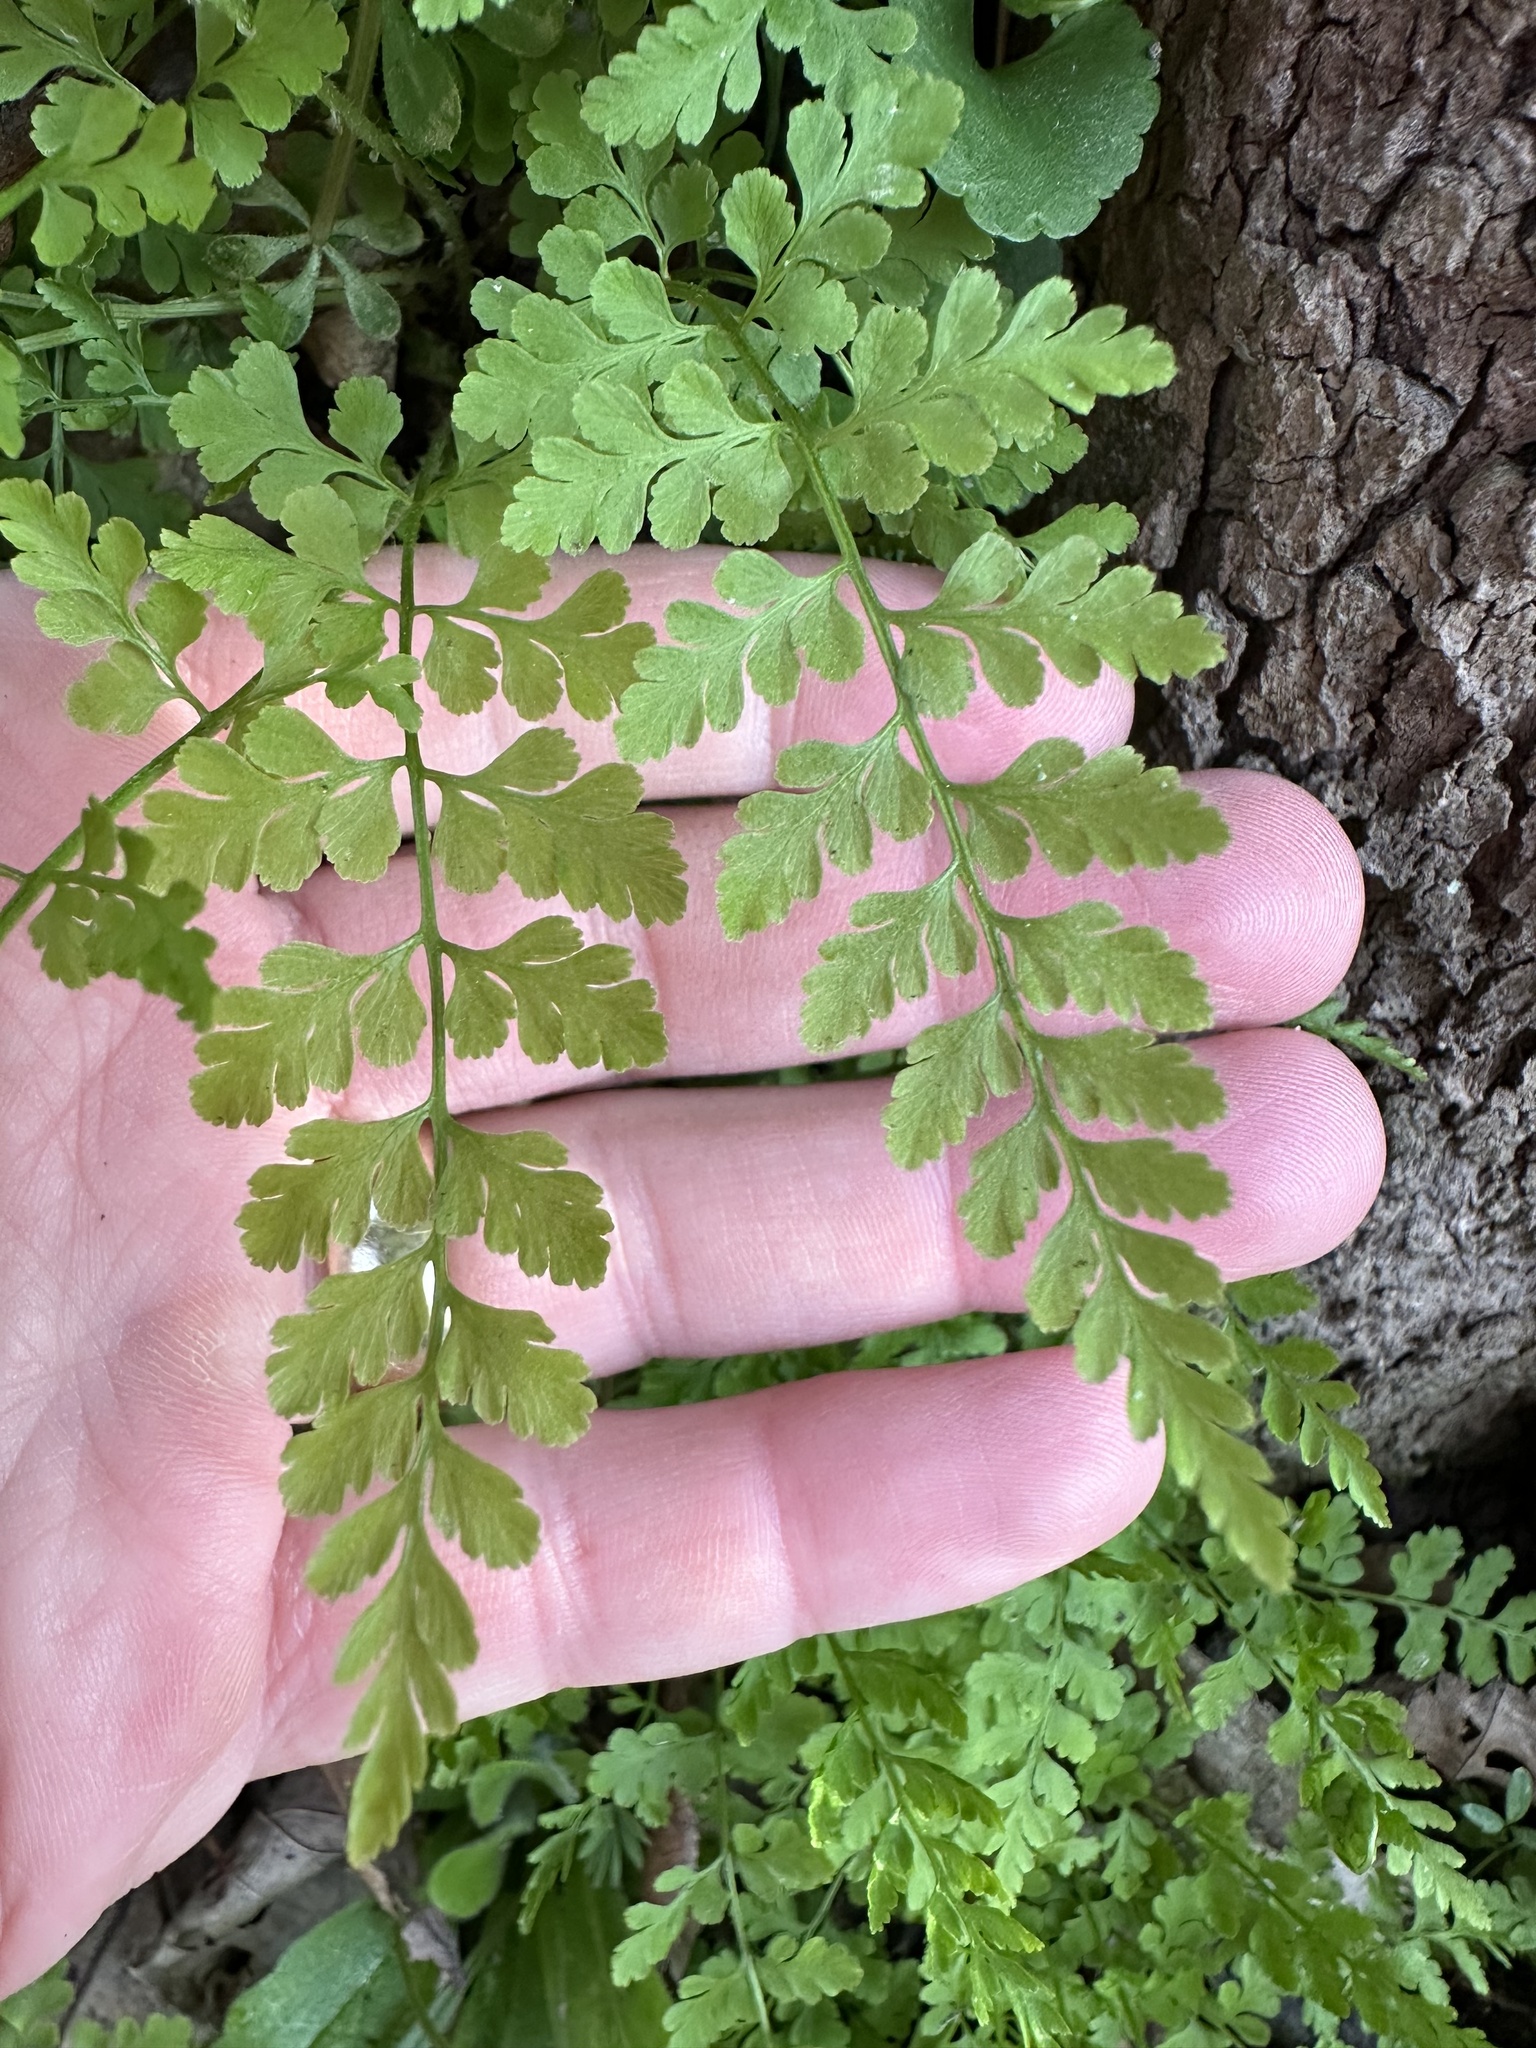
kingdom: Plantae
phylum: Tracheophyta
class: Polypodiopsida
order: Polypodiales
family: Cystopteridaceae
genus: Cystopteris
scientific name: Cystopteris protrusa
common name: Lowland brittle fern
